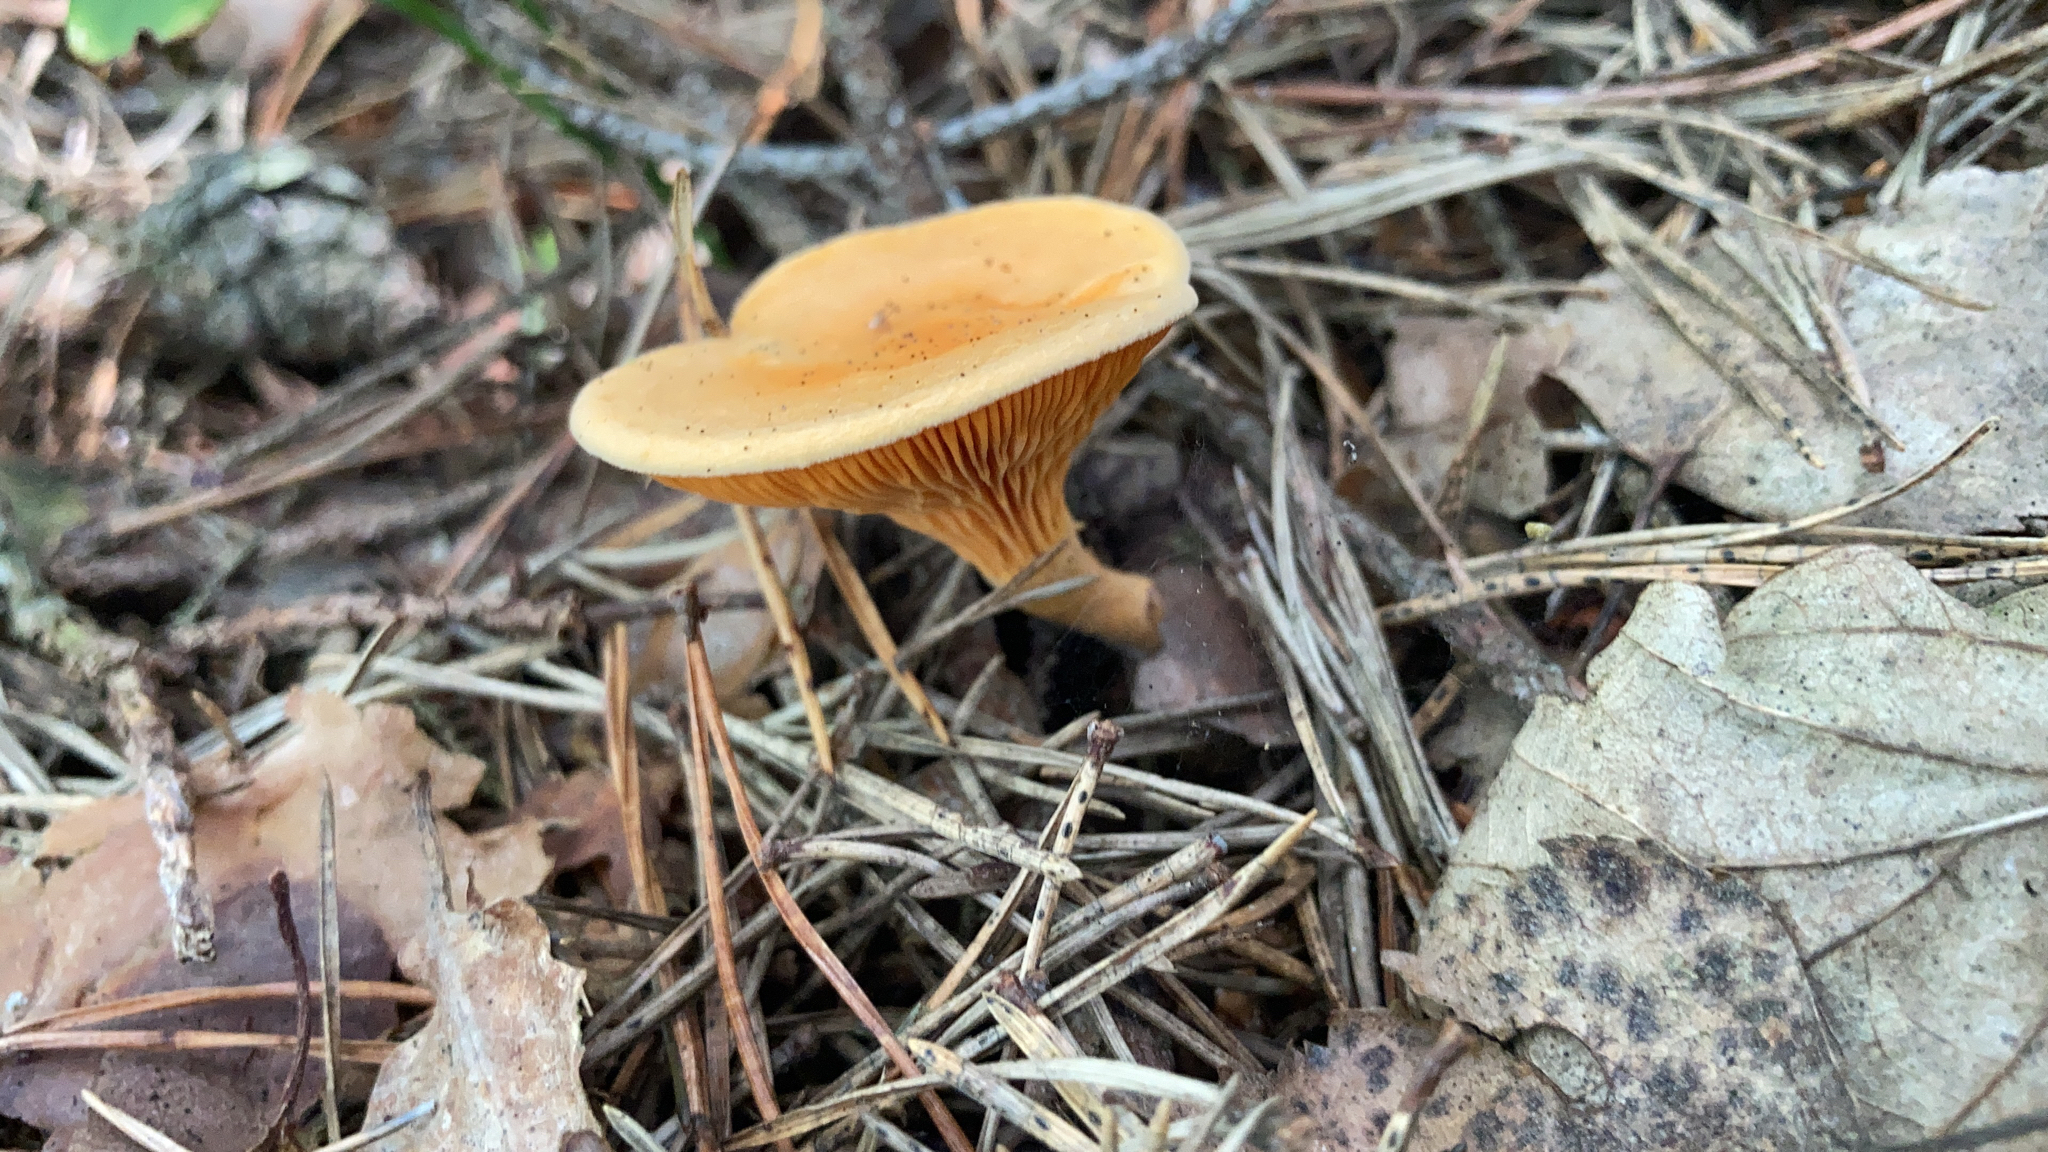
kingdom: Fungi
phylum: Basidiomycota
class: Agaricomycetes
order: Boletales
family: Hygrophoropsidaceae
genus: Hygrophoropsis
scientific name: Hygrophoropsis aurantiaca
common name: False chanterelle
